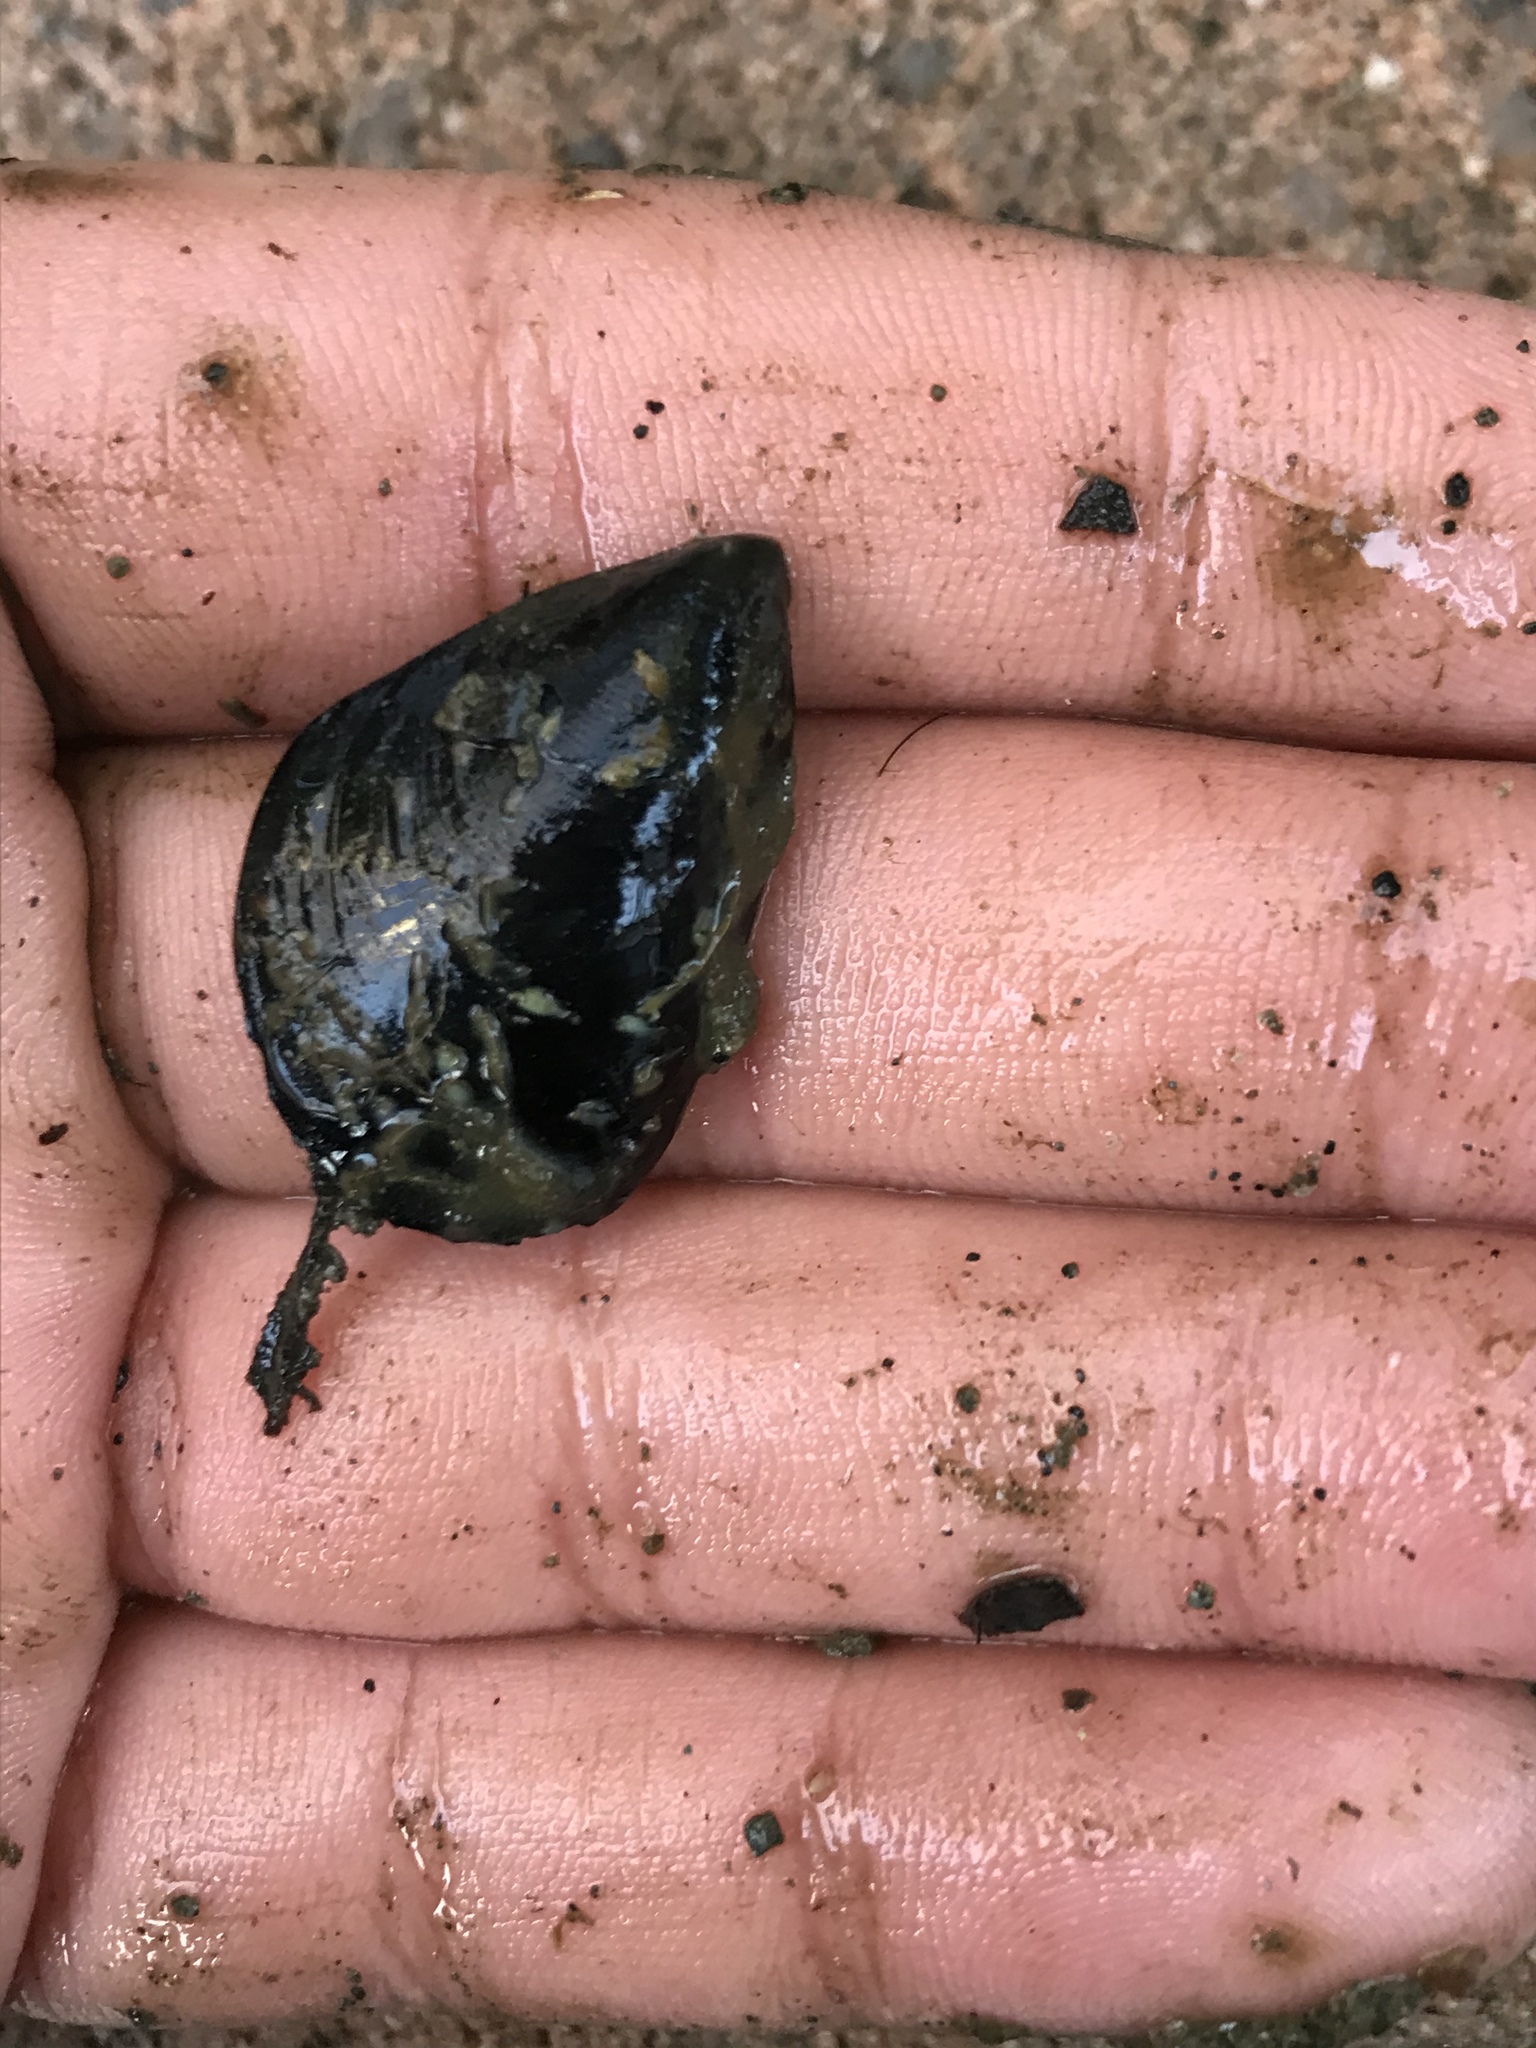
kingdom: Animalia
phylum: Mollusca
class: Bivalvia
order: Mytilida
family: Mytilidae
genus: Mytilus
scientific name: Mytilus
